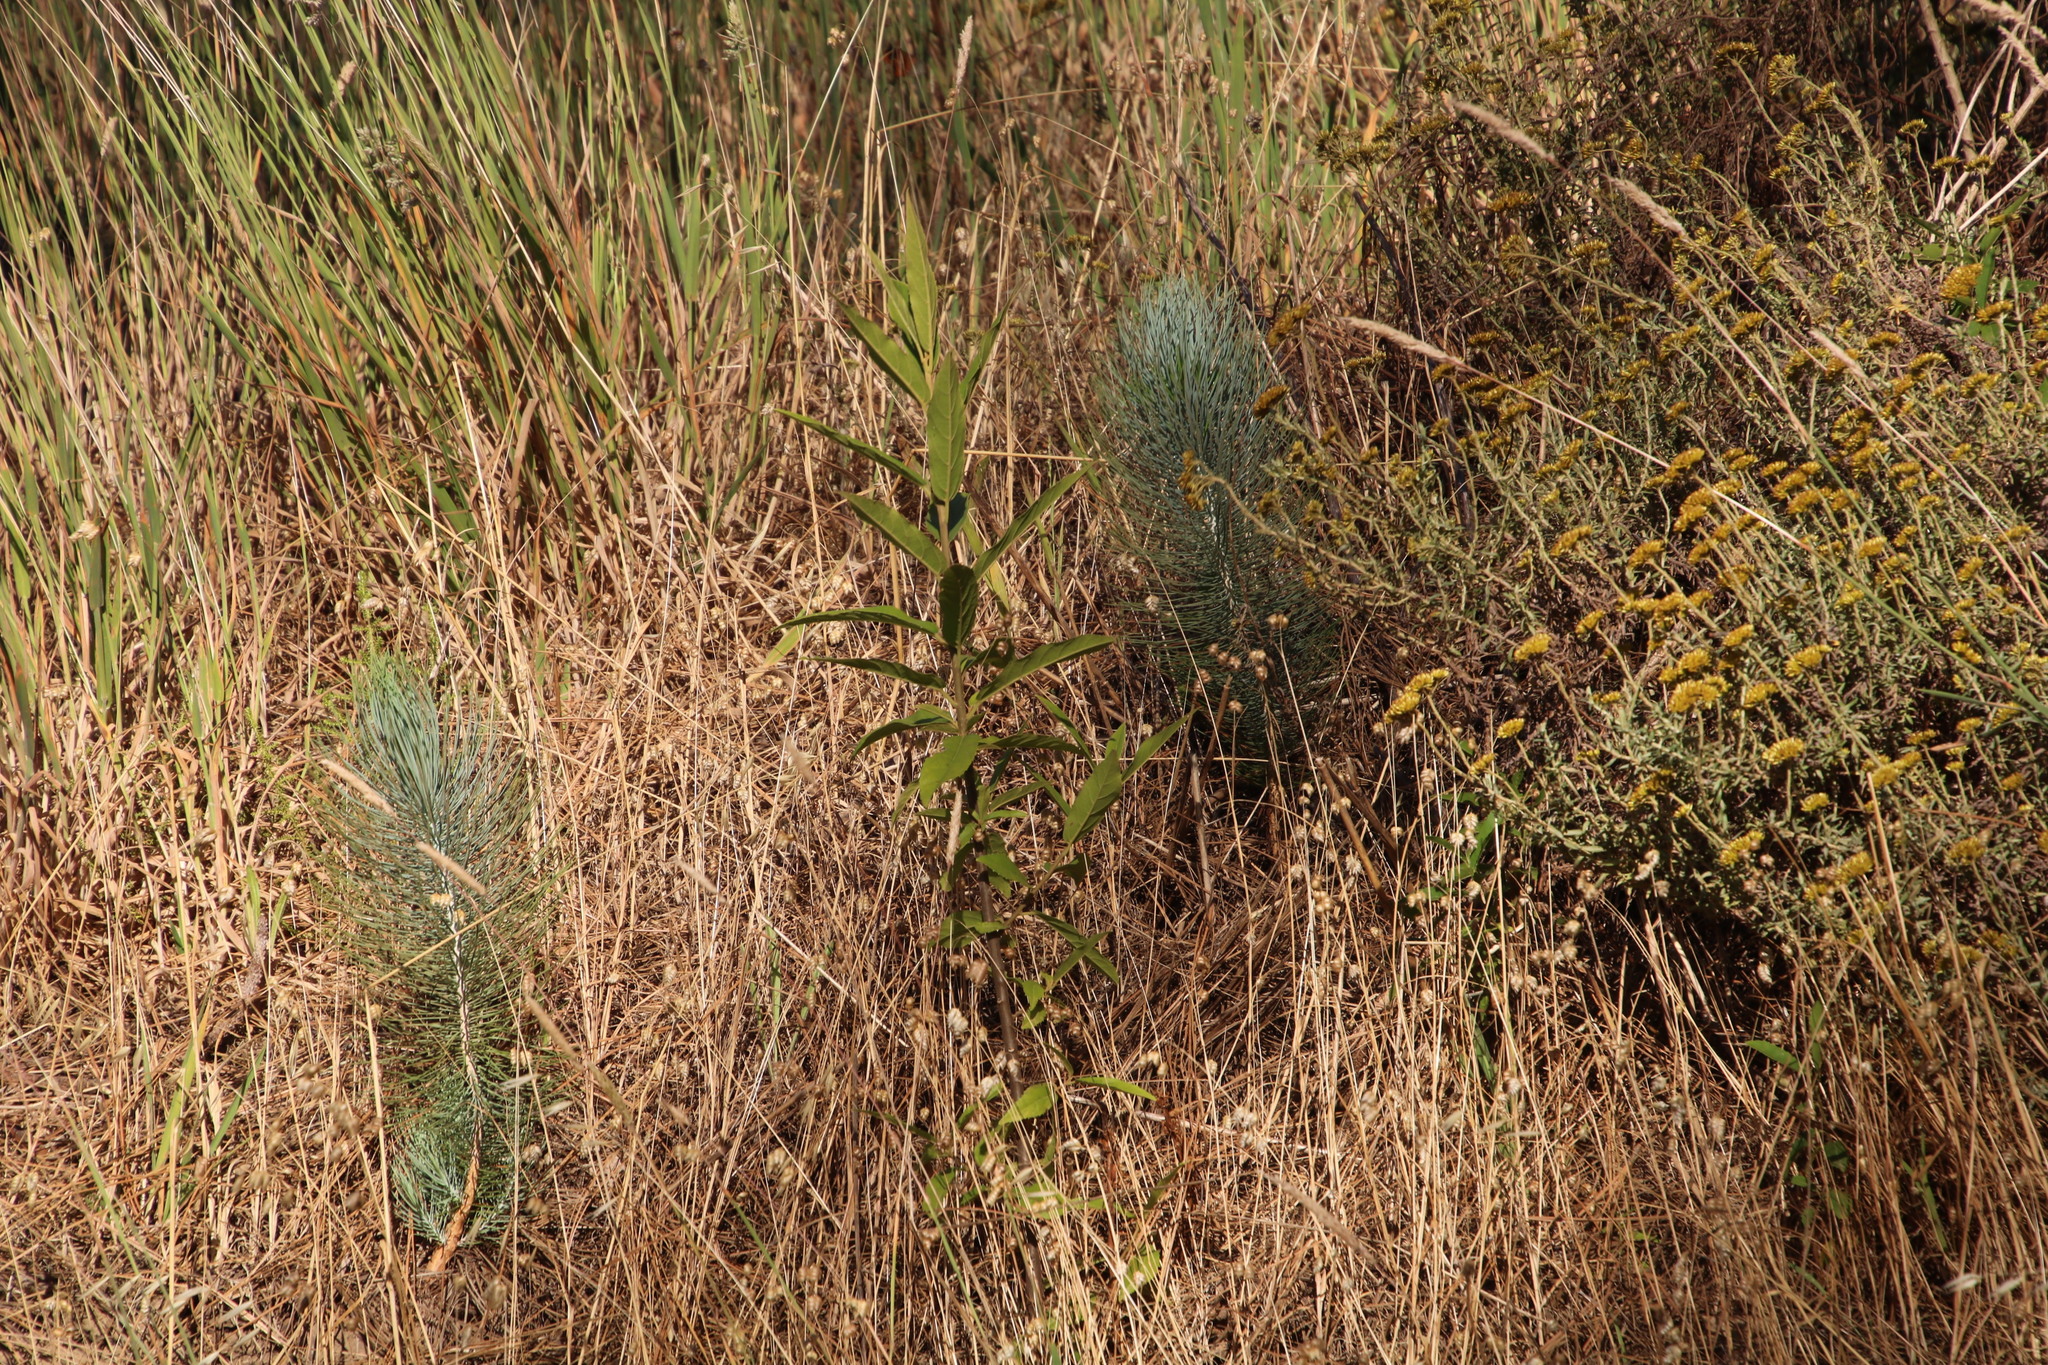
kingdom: Plantae
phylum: Tracheophyta
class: Pinopsida
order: Pinales
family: Pinaceae
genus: Pinus
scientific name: Pinus canariensis
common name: Canary islands pine
